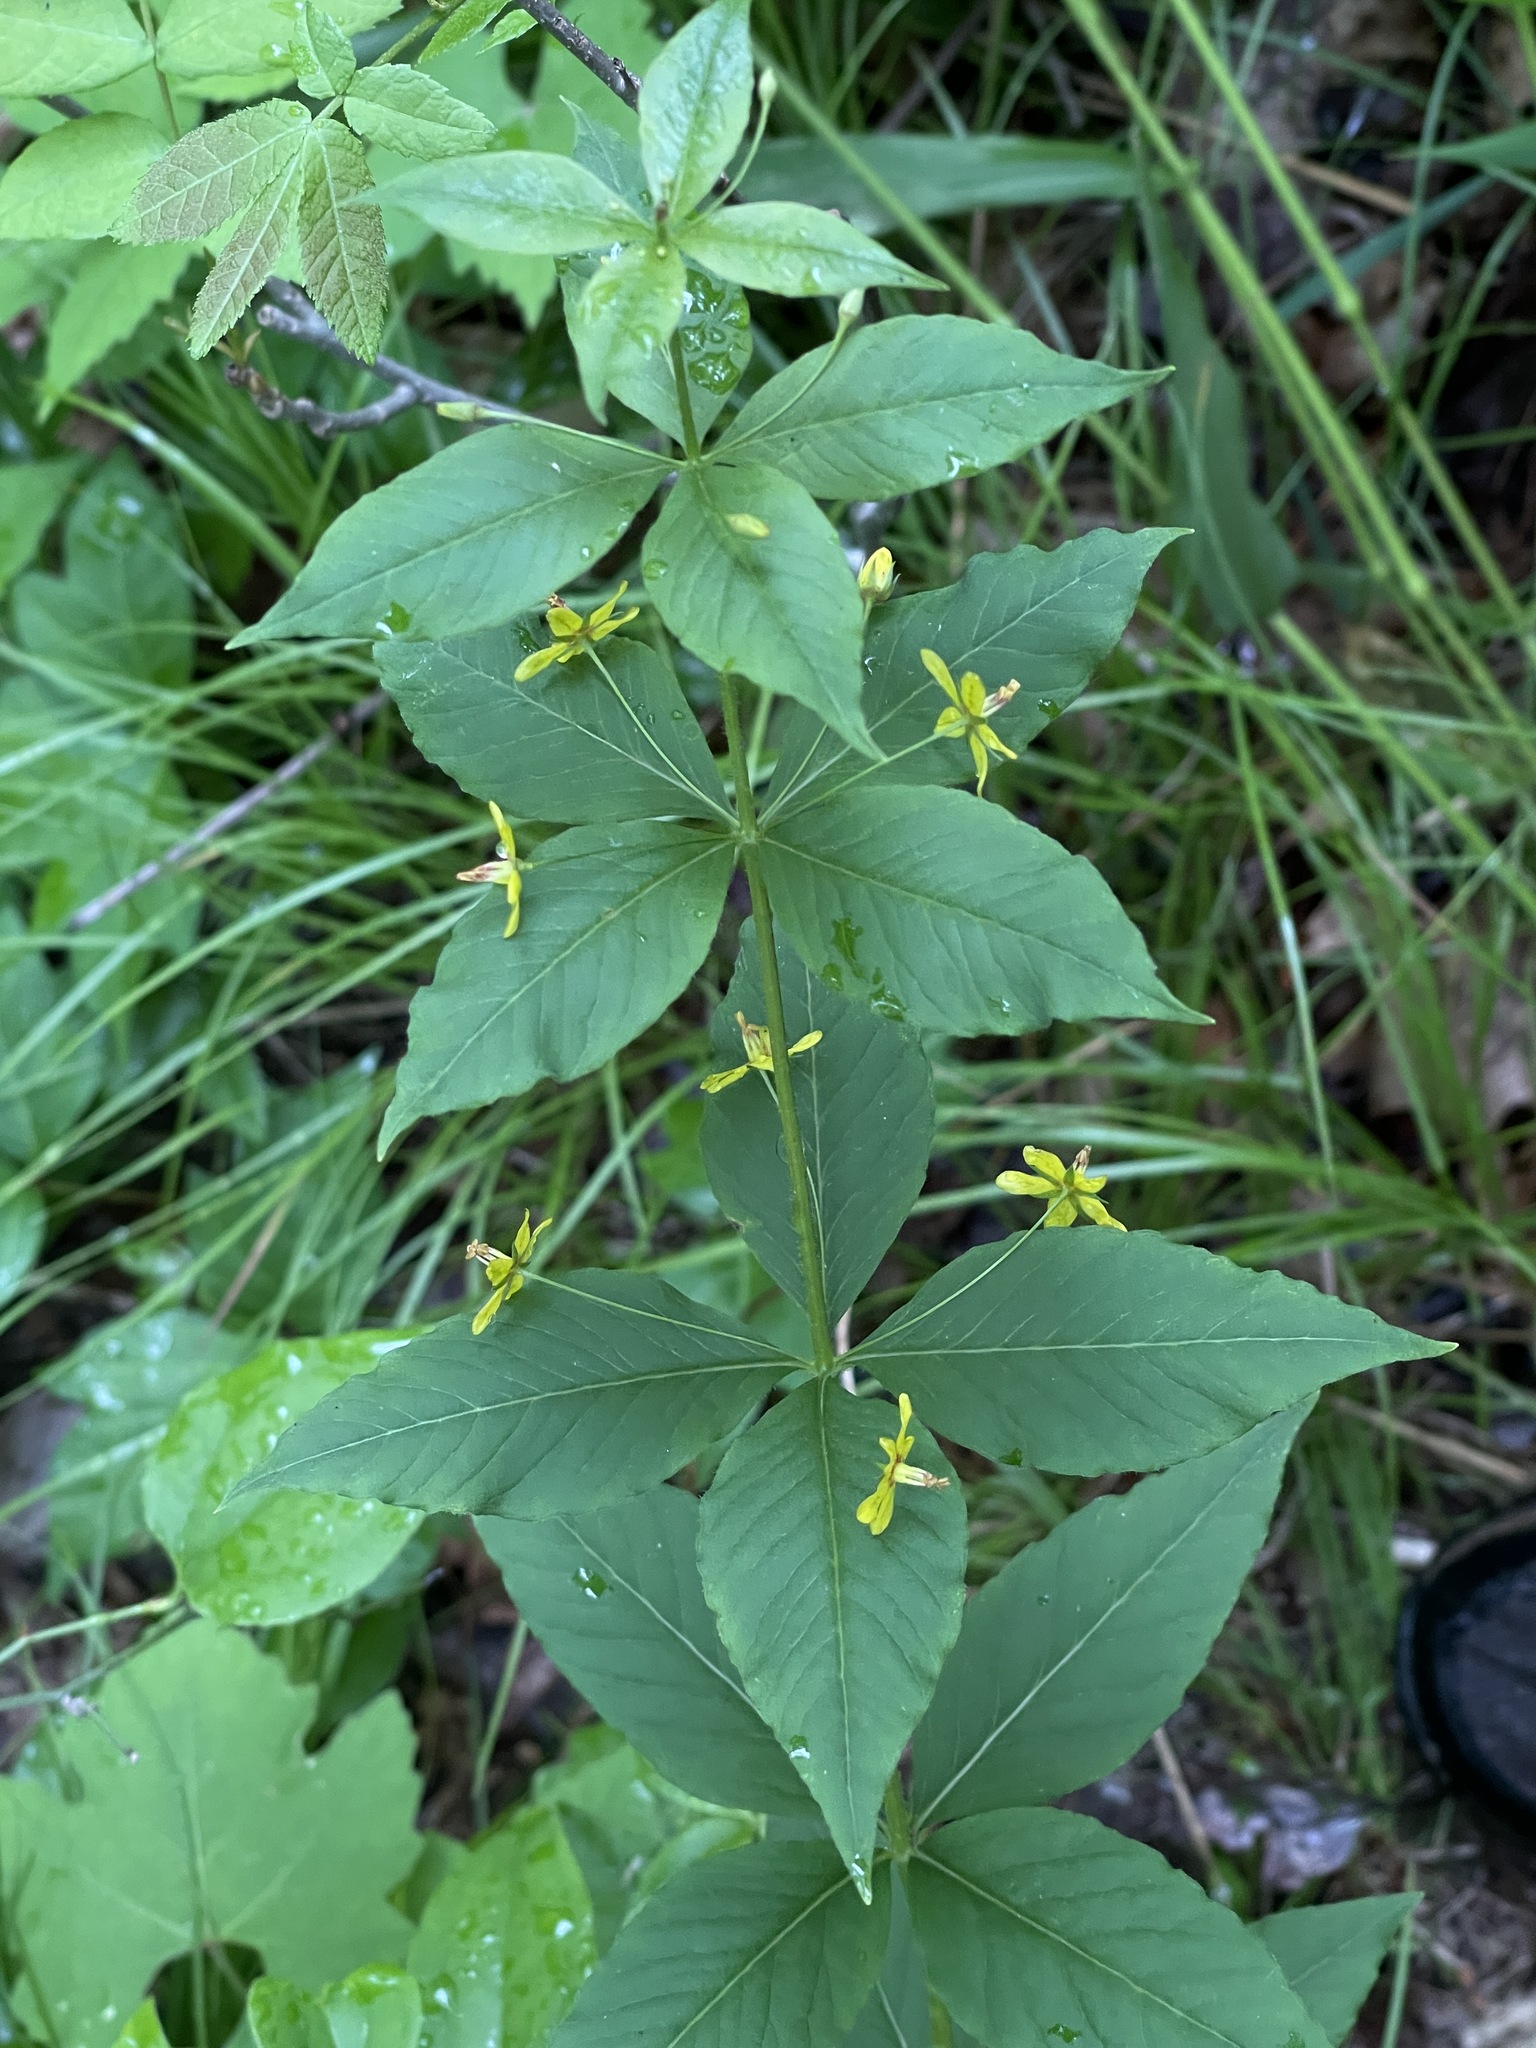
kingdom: Plantae
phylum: Tracheophyta
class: Magnoliopsida
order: Ericales
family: Primulaceae
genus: Lysimachia
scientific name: Lysimachia quadrifolia
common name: Whorled loosestrife
